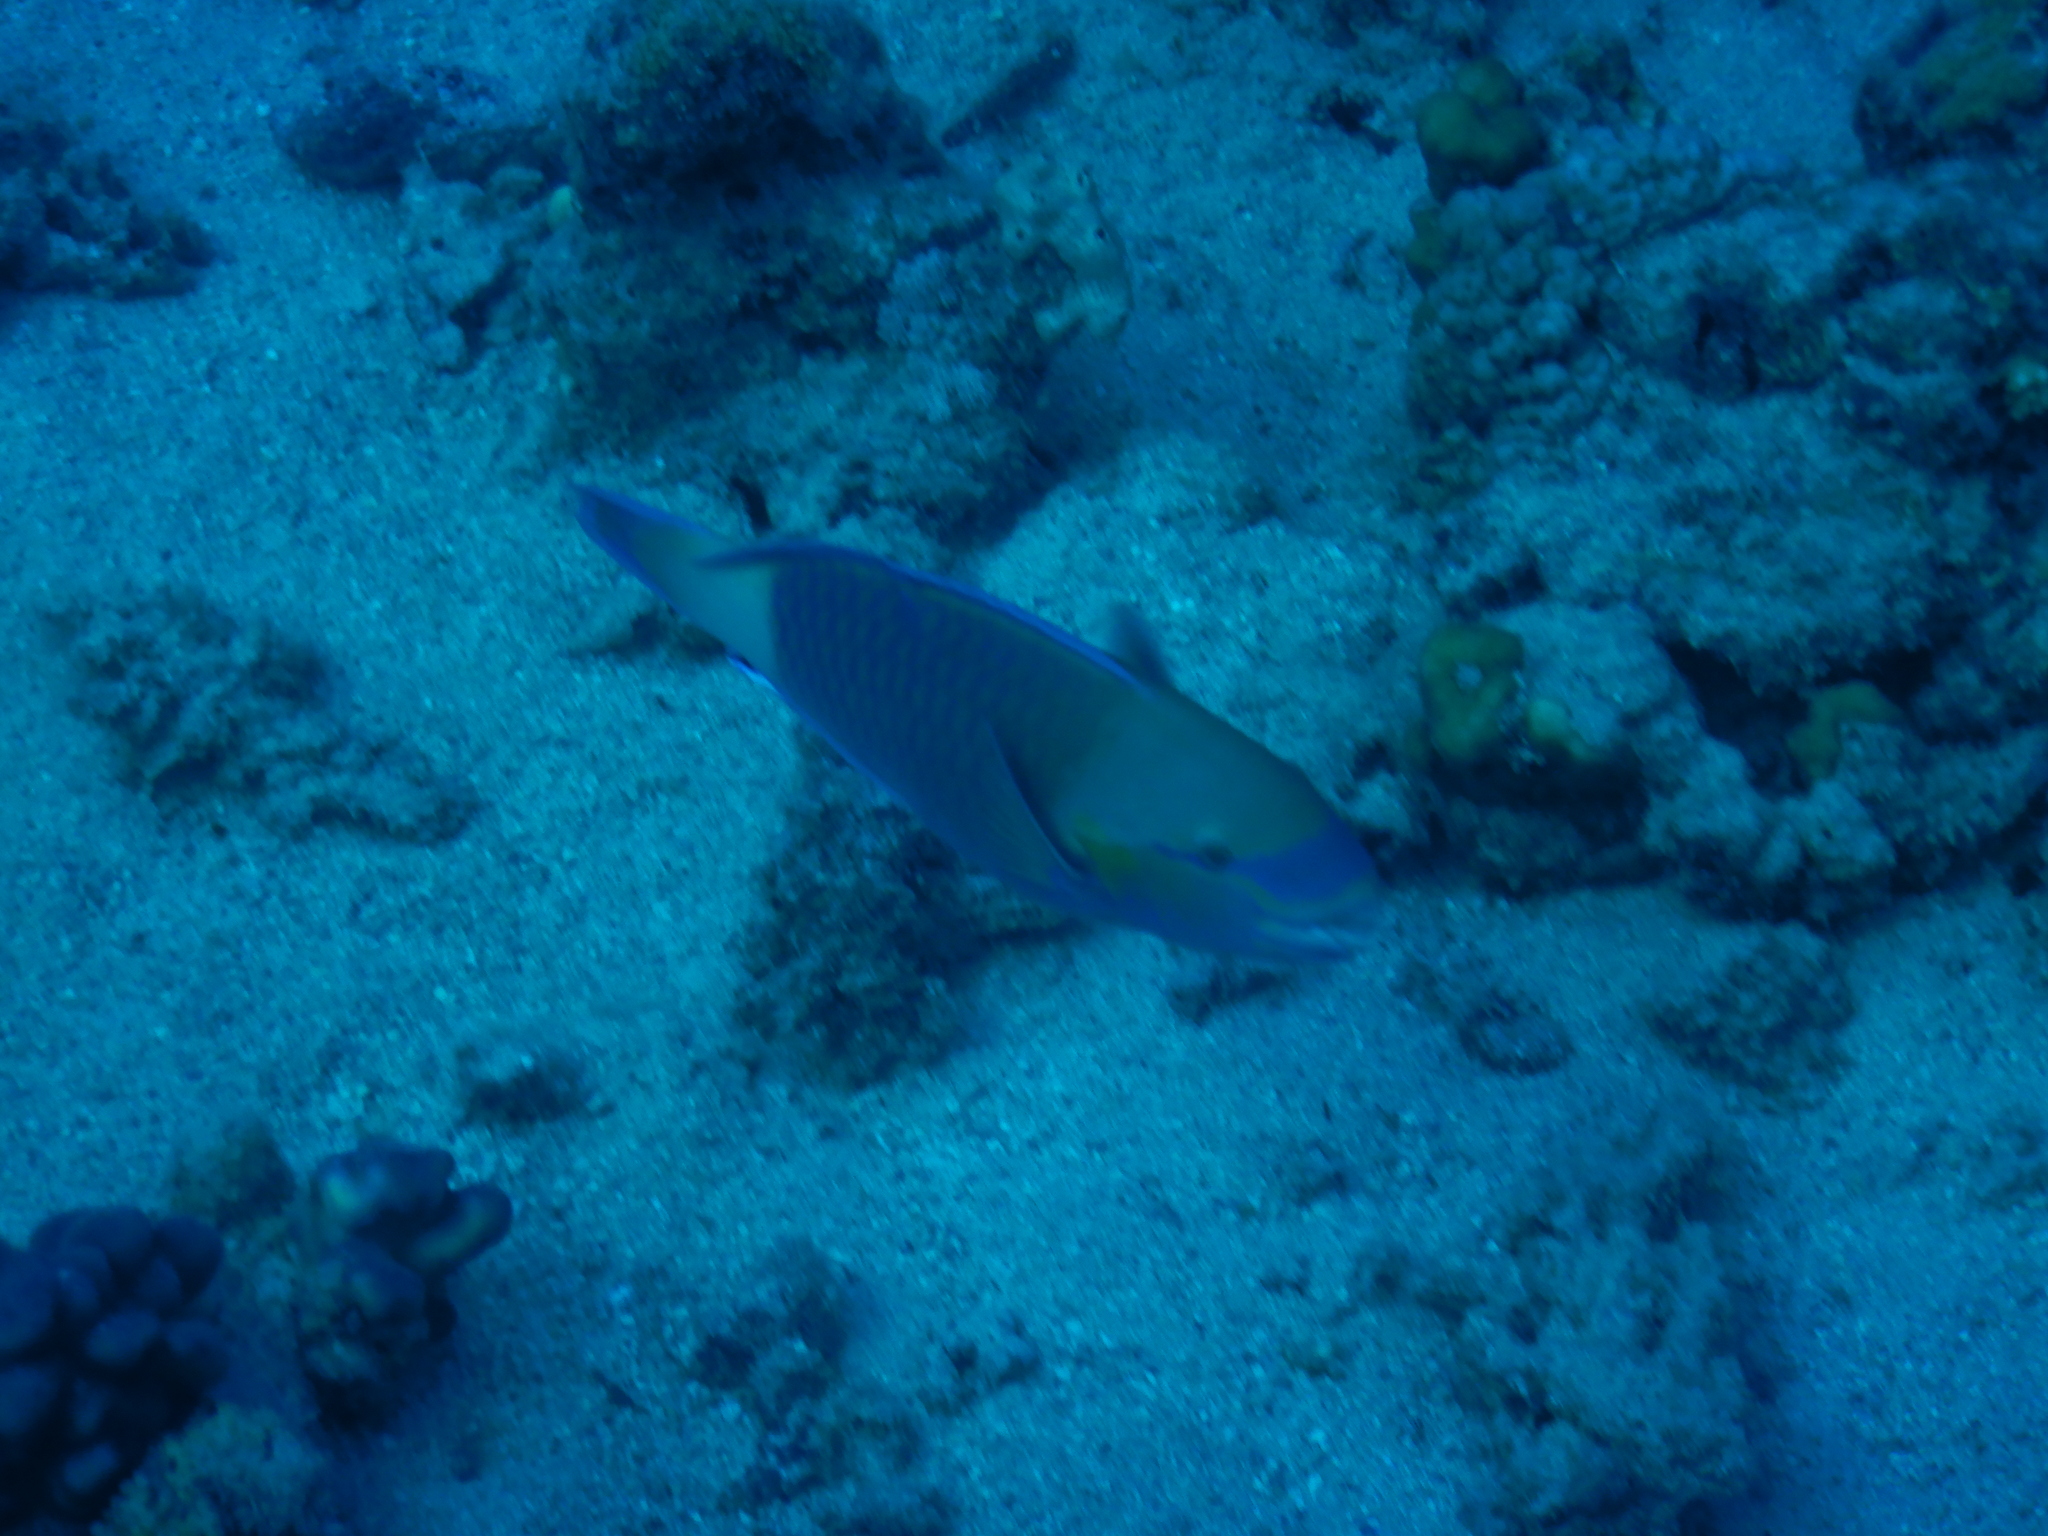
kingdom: Animalia
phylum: Chordata
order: Perciformes
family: Scaridae
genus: Chlorurus
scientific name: Chlorurus sordidus
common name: Bullethead parrotfish
